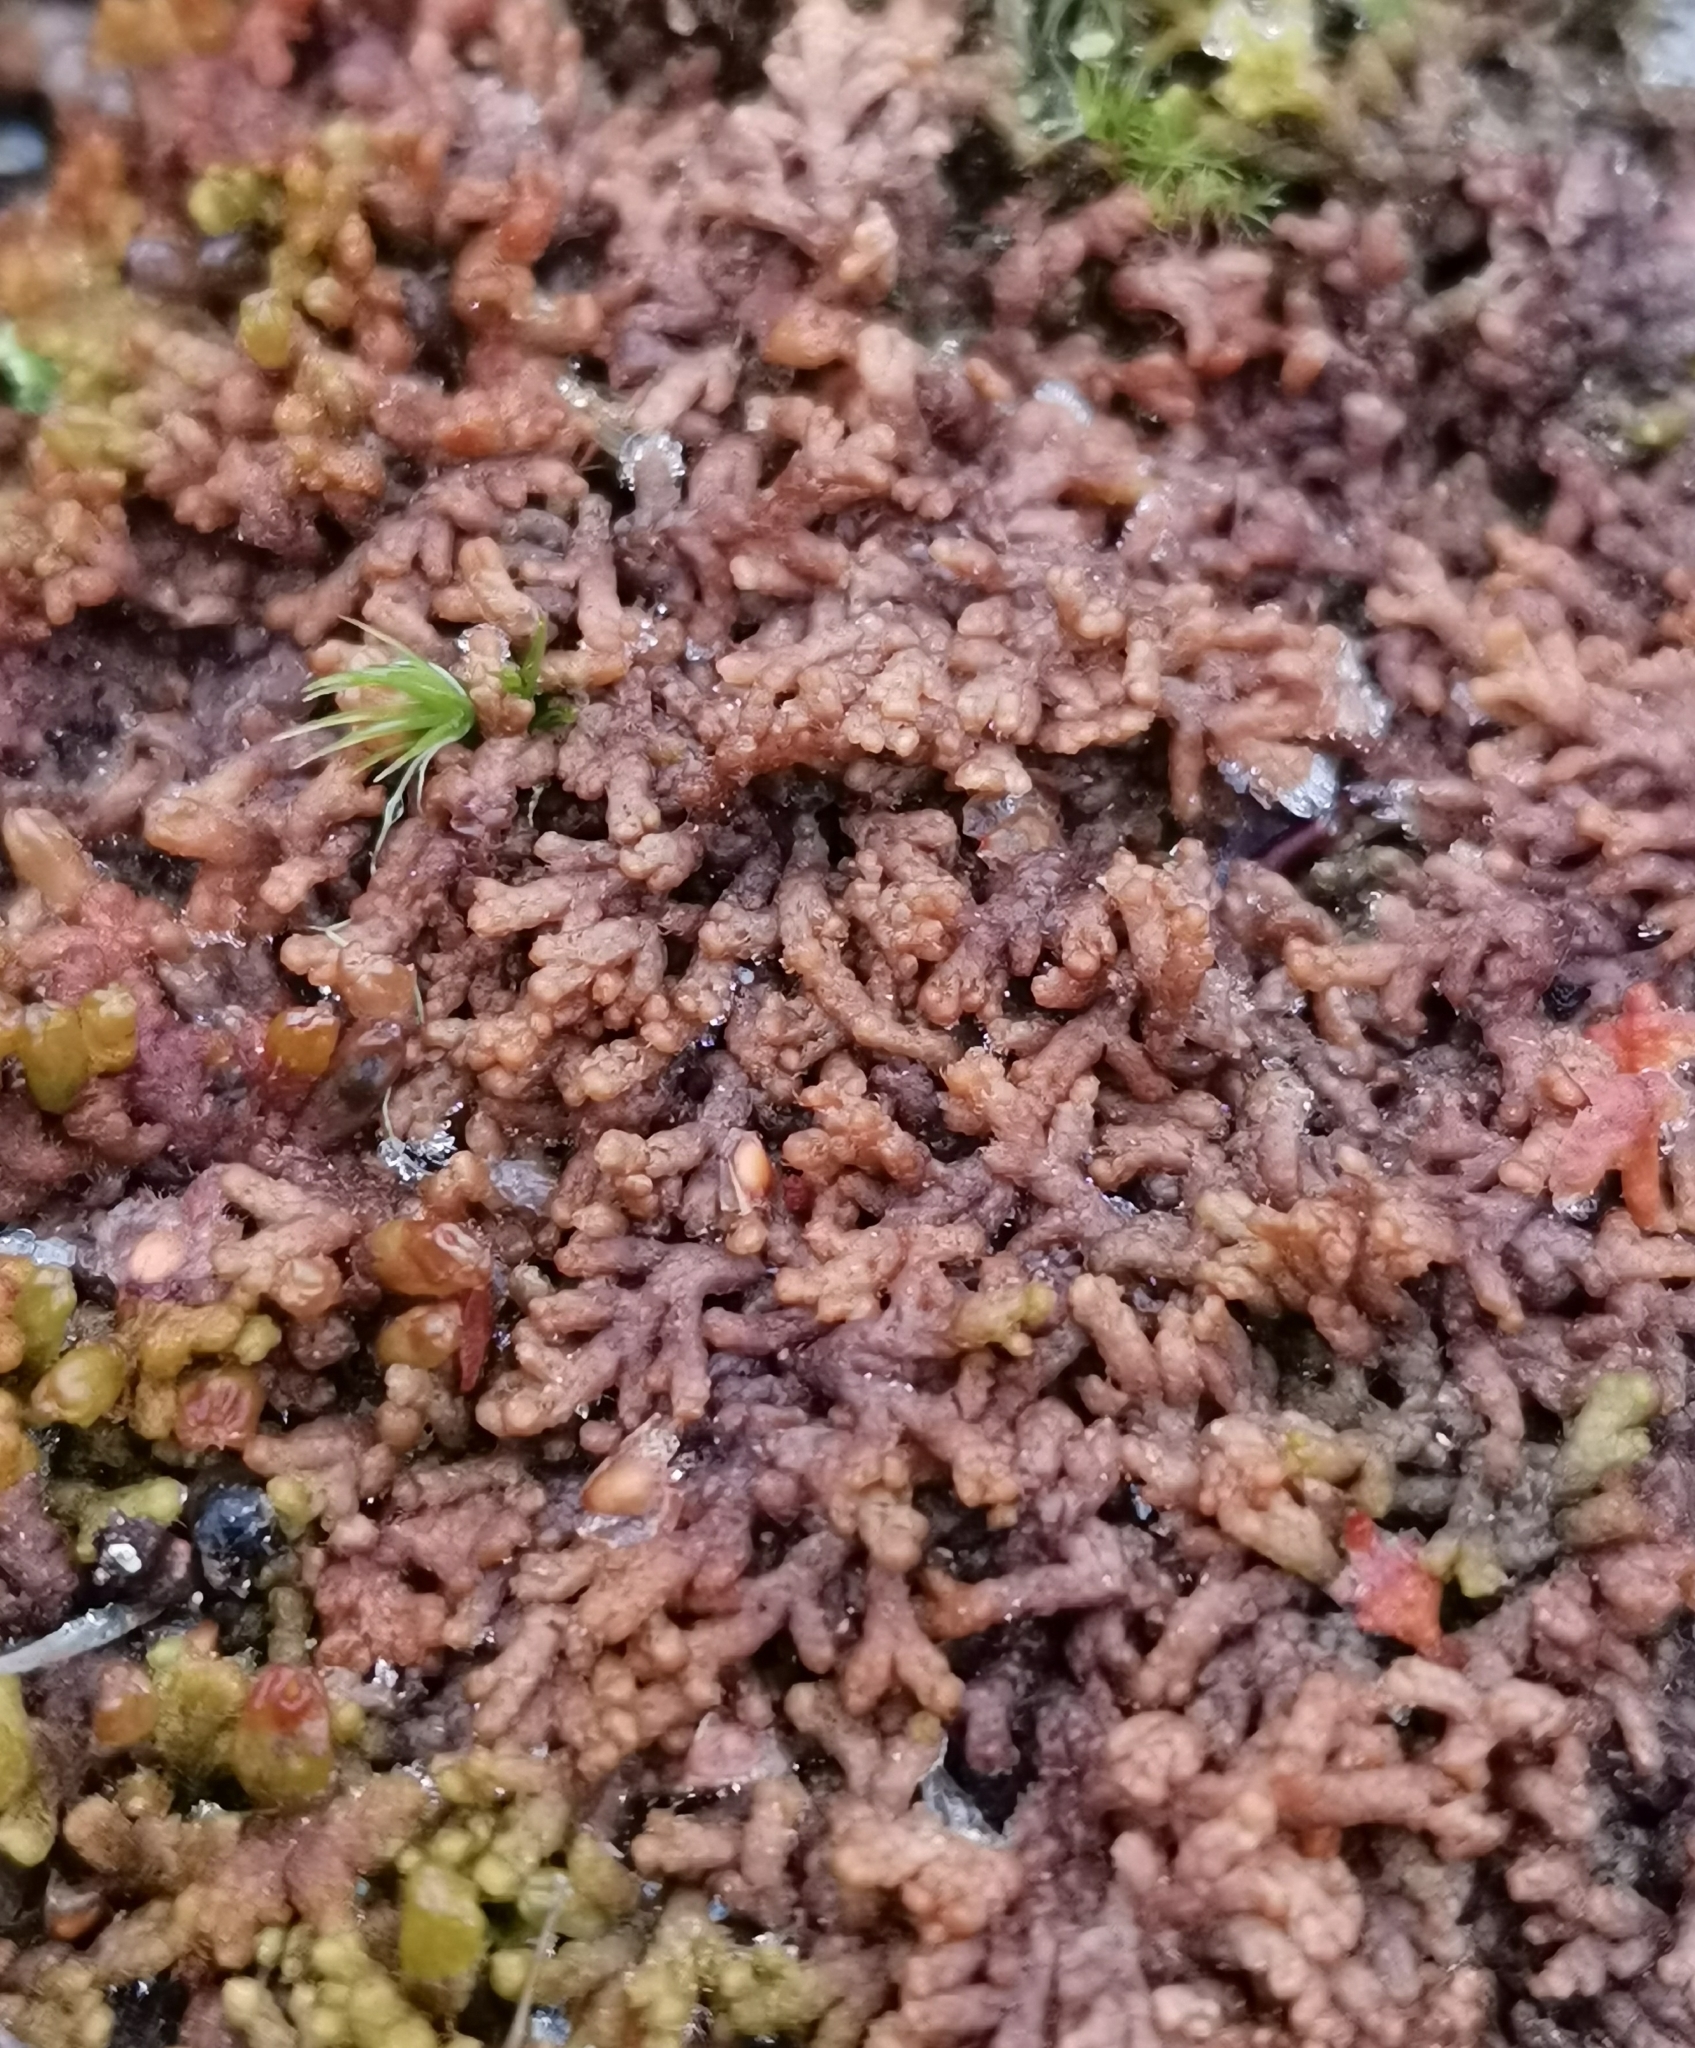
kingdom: Plantae
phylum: Marchantiophyta
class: Jungermanniopsida
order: Ptilidiales
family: Ptilidiaceae
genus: Ptilidium
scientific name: Ptilidium pulcherrimum
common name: Tree fringewort
